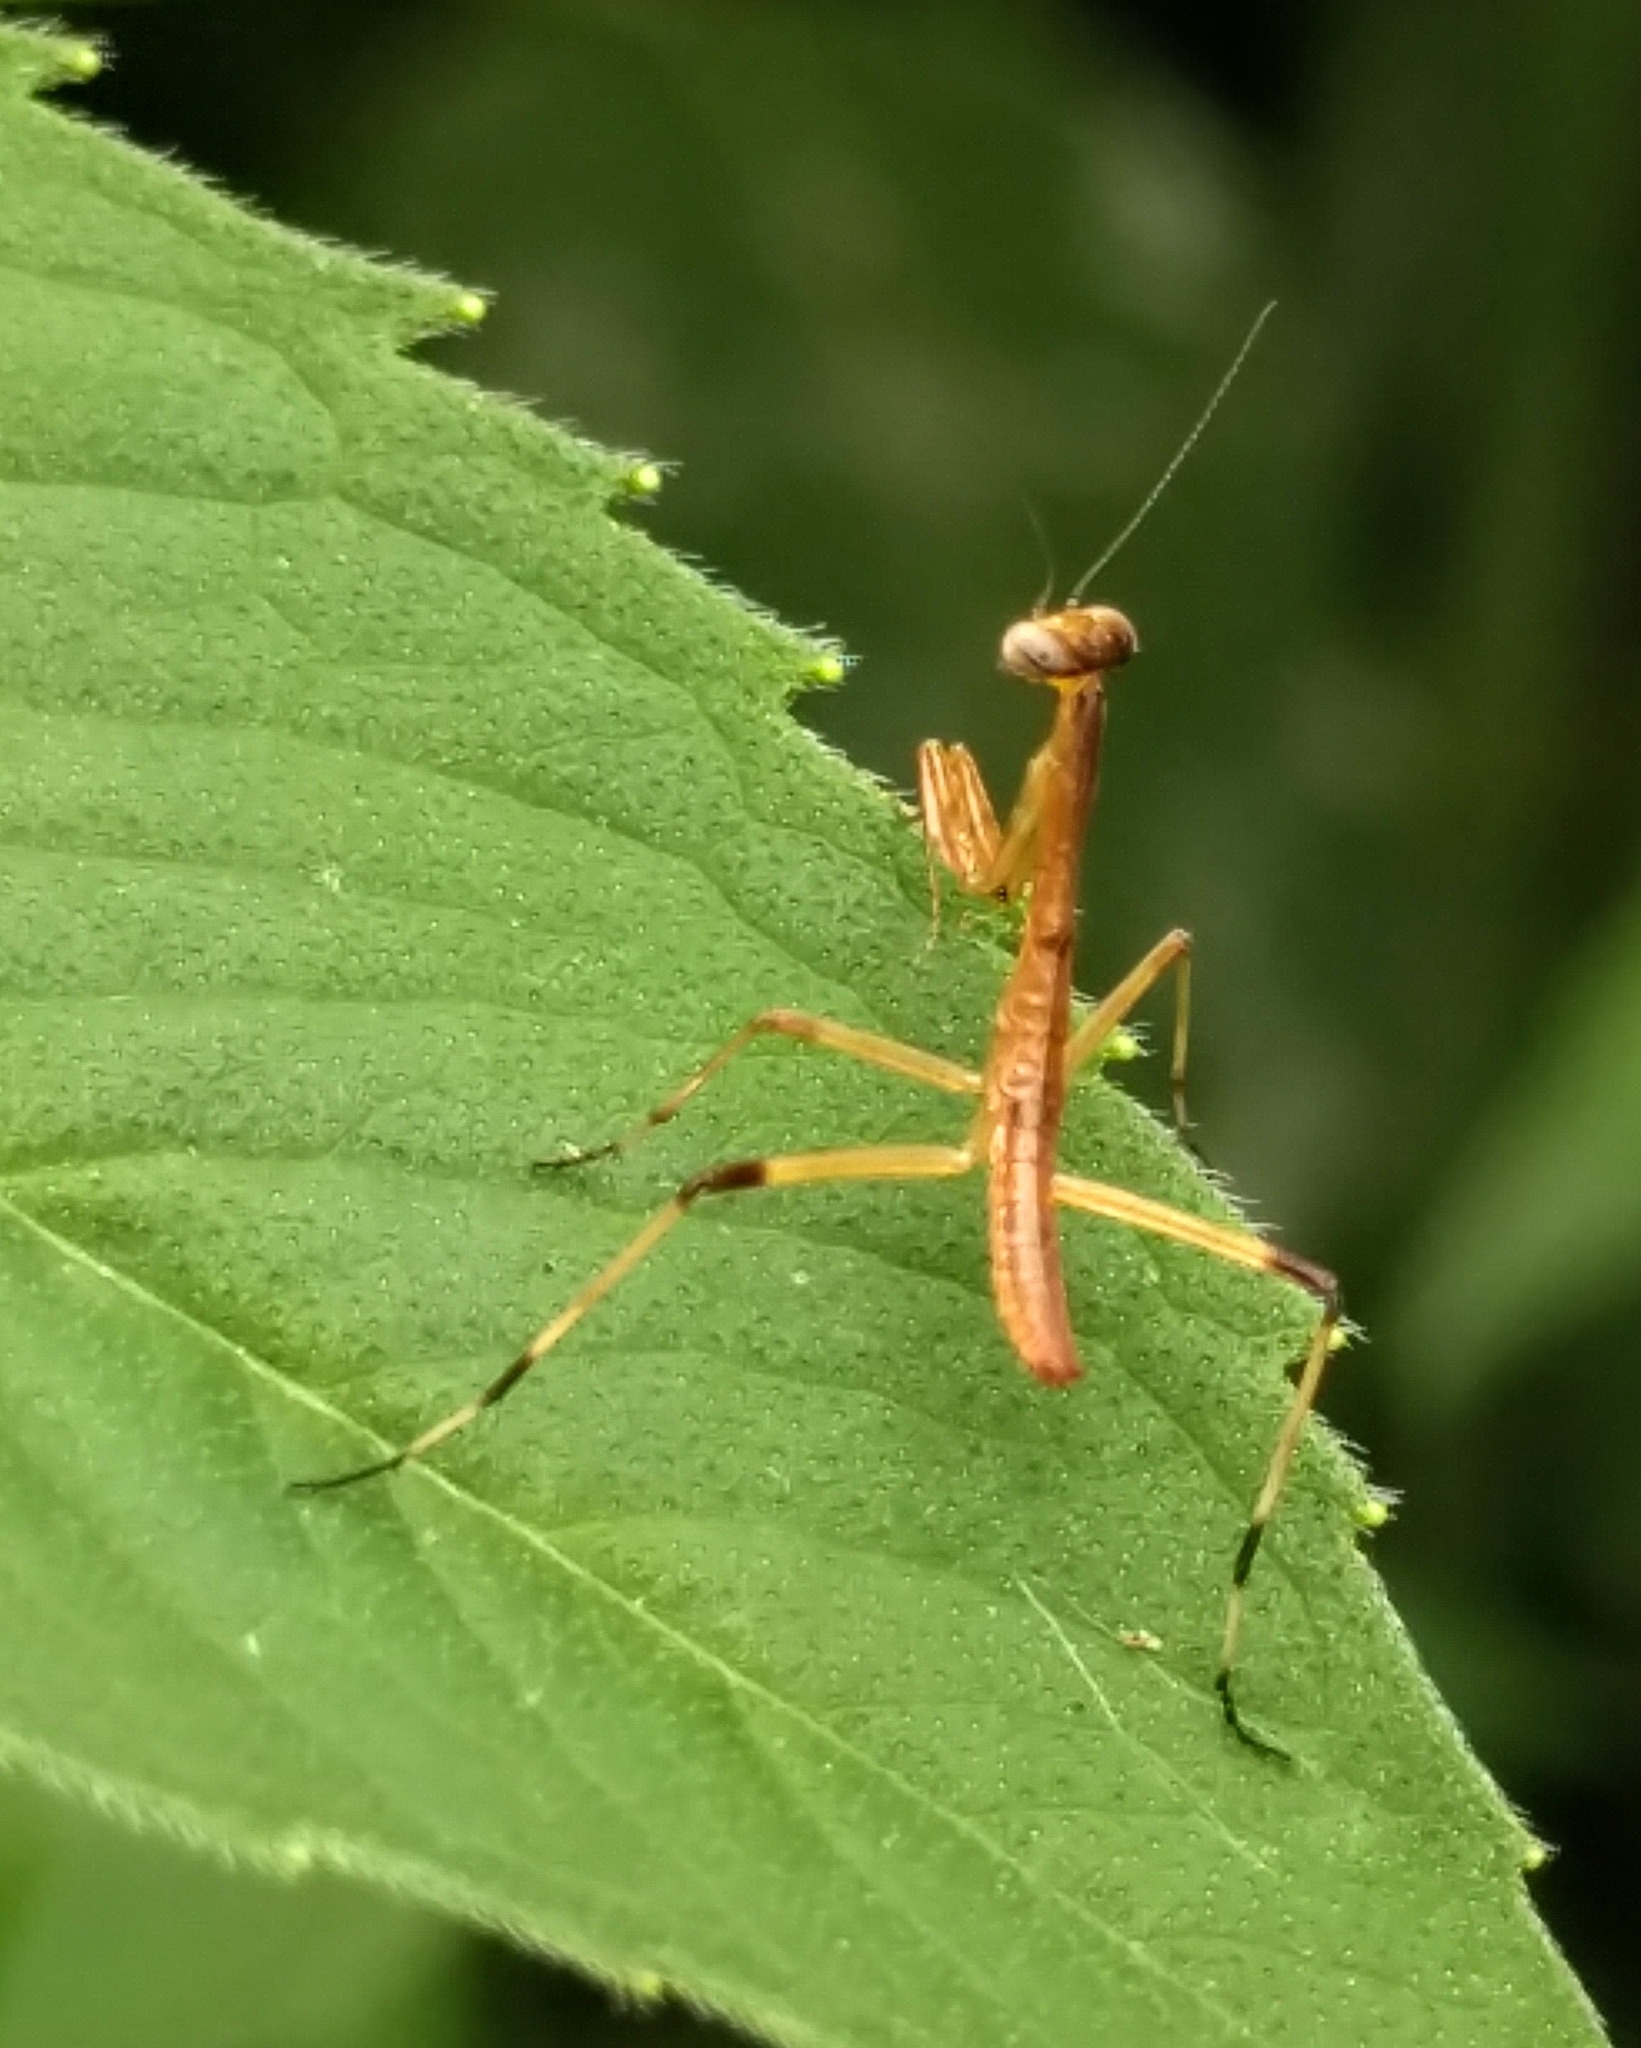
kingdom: Animalia
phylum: Arthropoda
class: Insecta
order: Mantodea
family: Mantidae
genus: Stagmomantis
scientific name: Stagmomantis carolina
